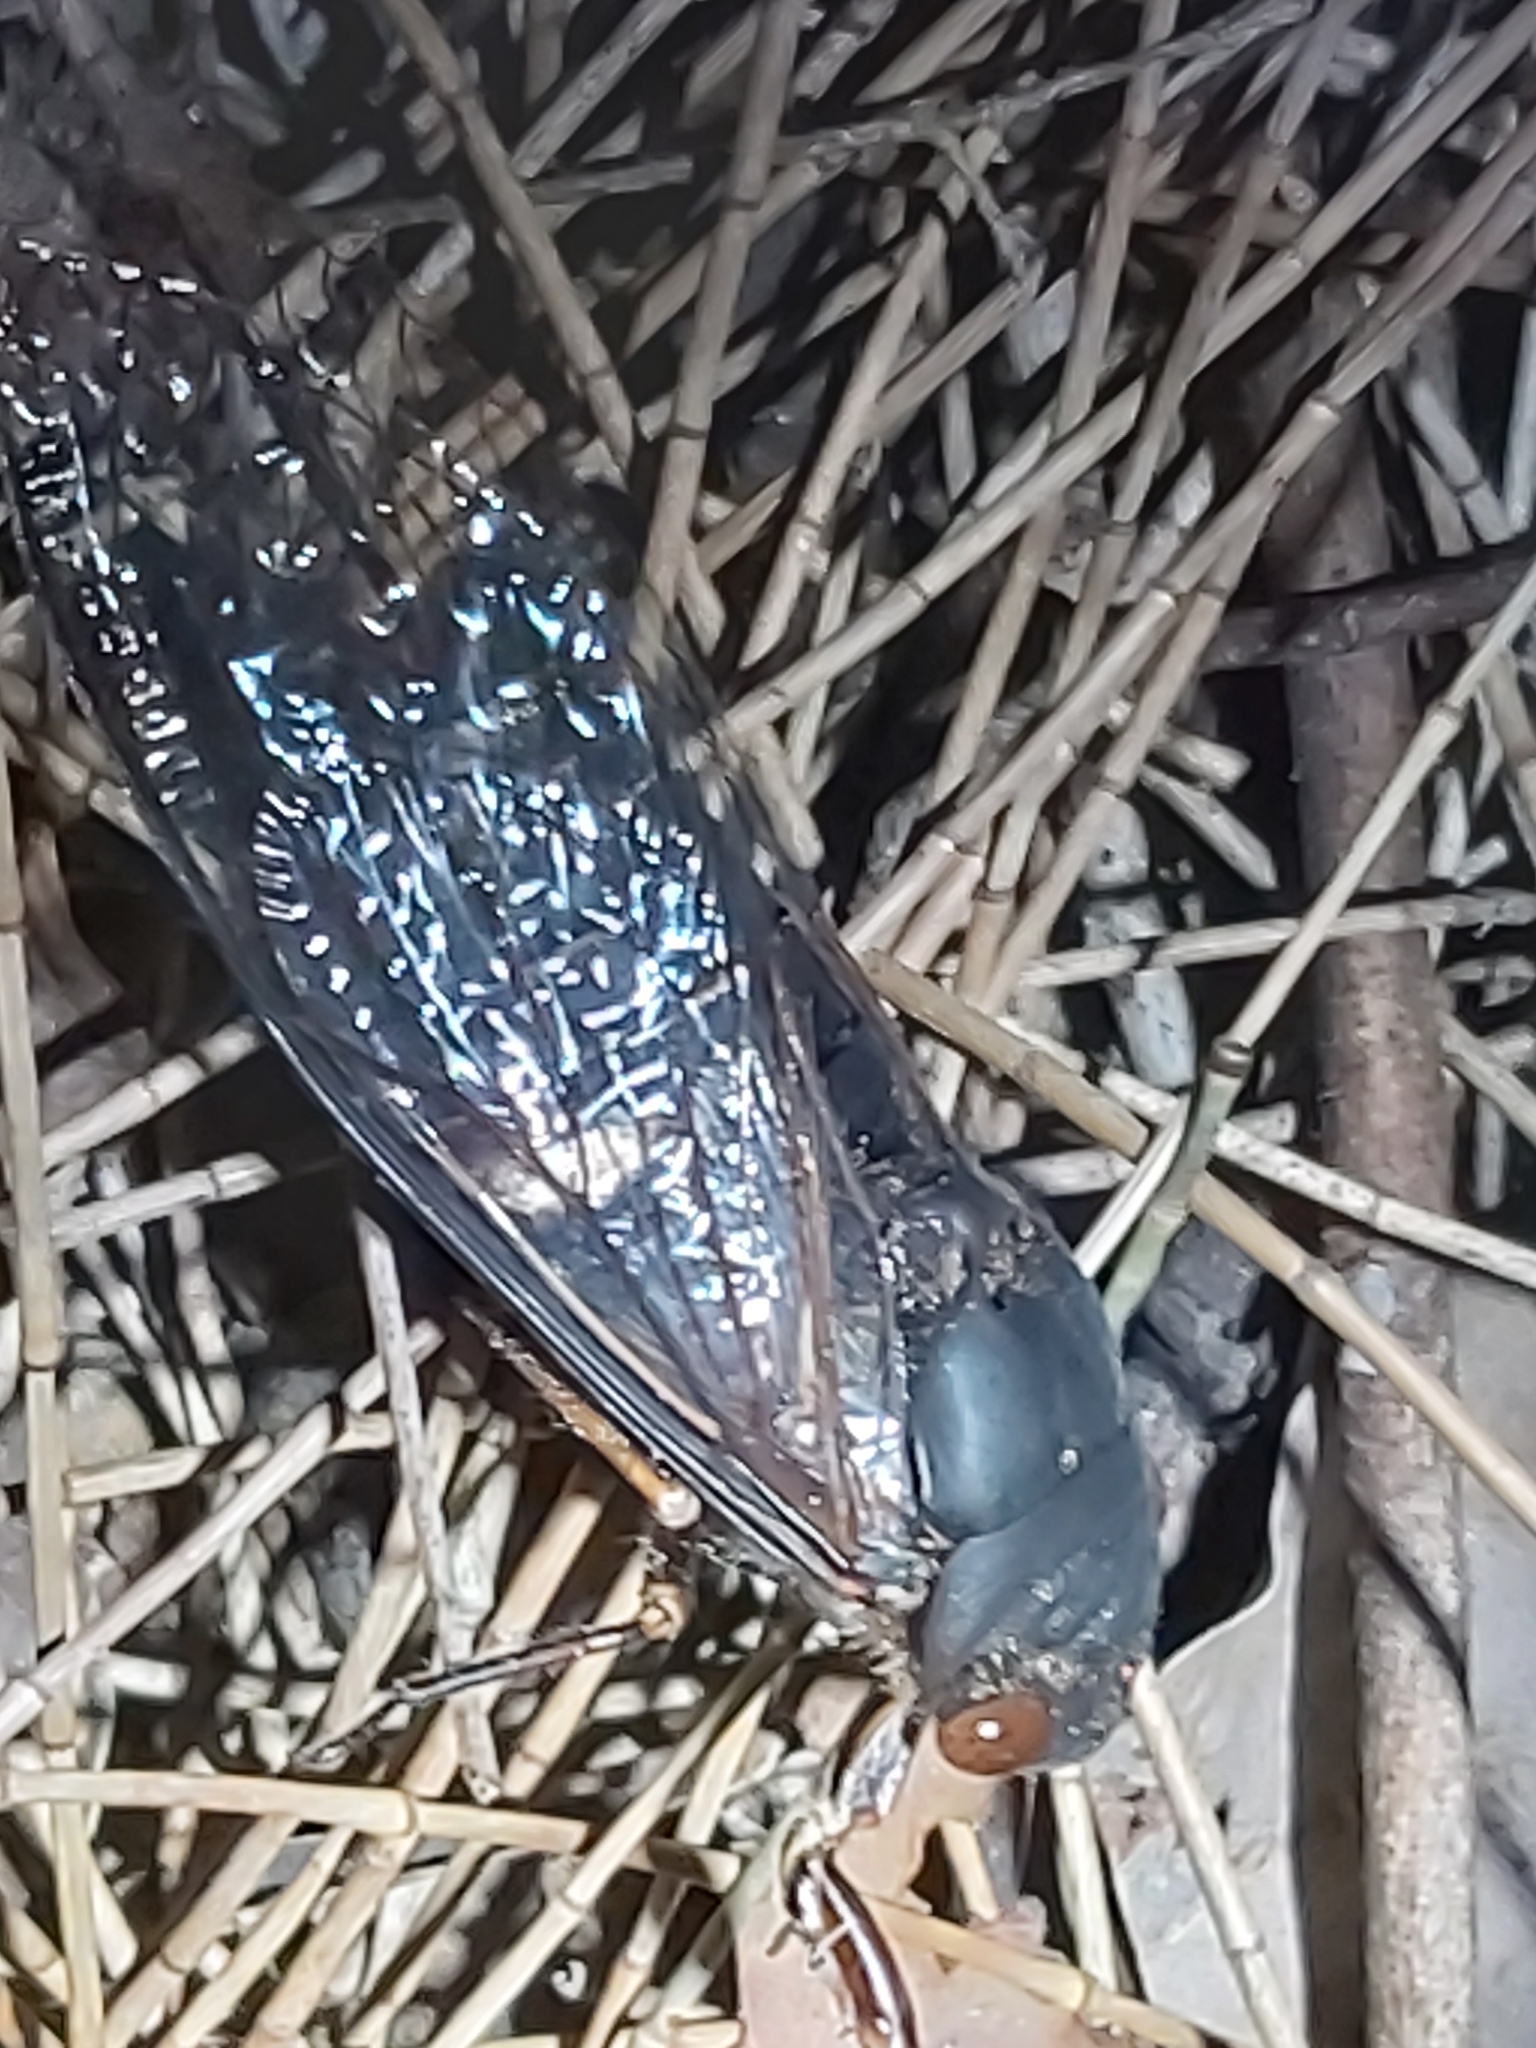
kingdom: Animalia
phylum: Arthropoda
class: Insecta
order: Hemiptera
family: Cicadidae
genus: Psaltoda
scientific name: Psaltoda plaga
